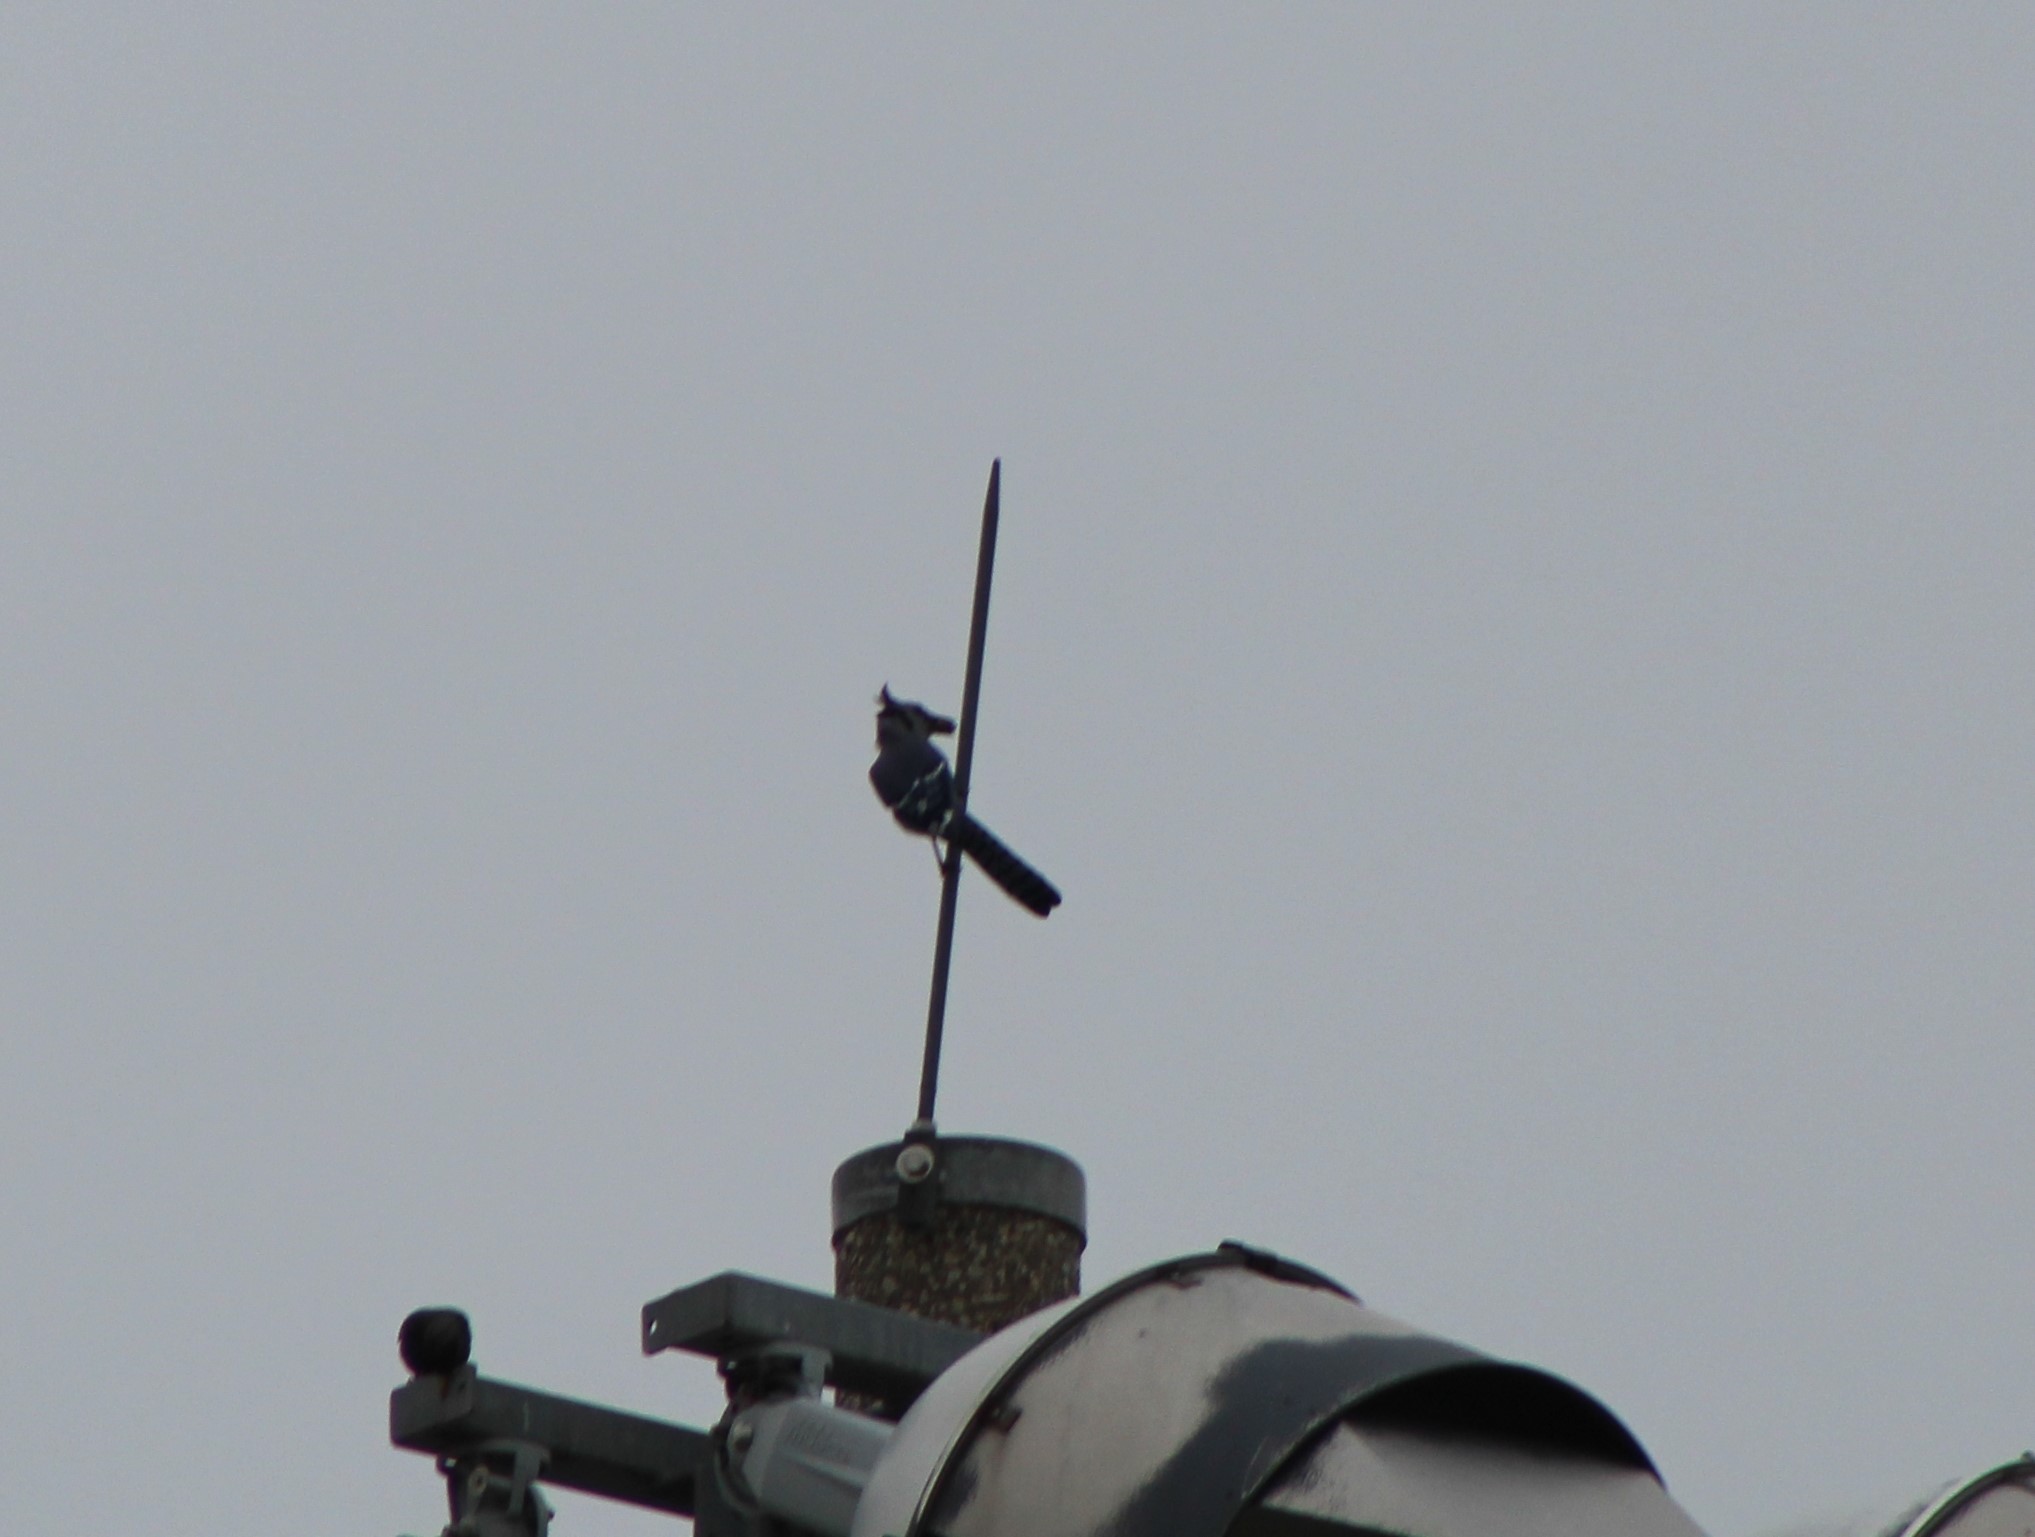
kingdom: Animalia
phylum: Chordata
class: Aves
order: Passeriformes
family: Corvidae
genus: Cyanocitta
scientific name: Cyanocitta cristata
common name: Blue jay
